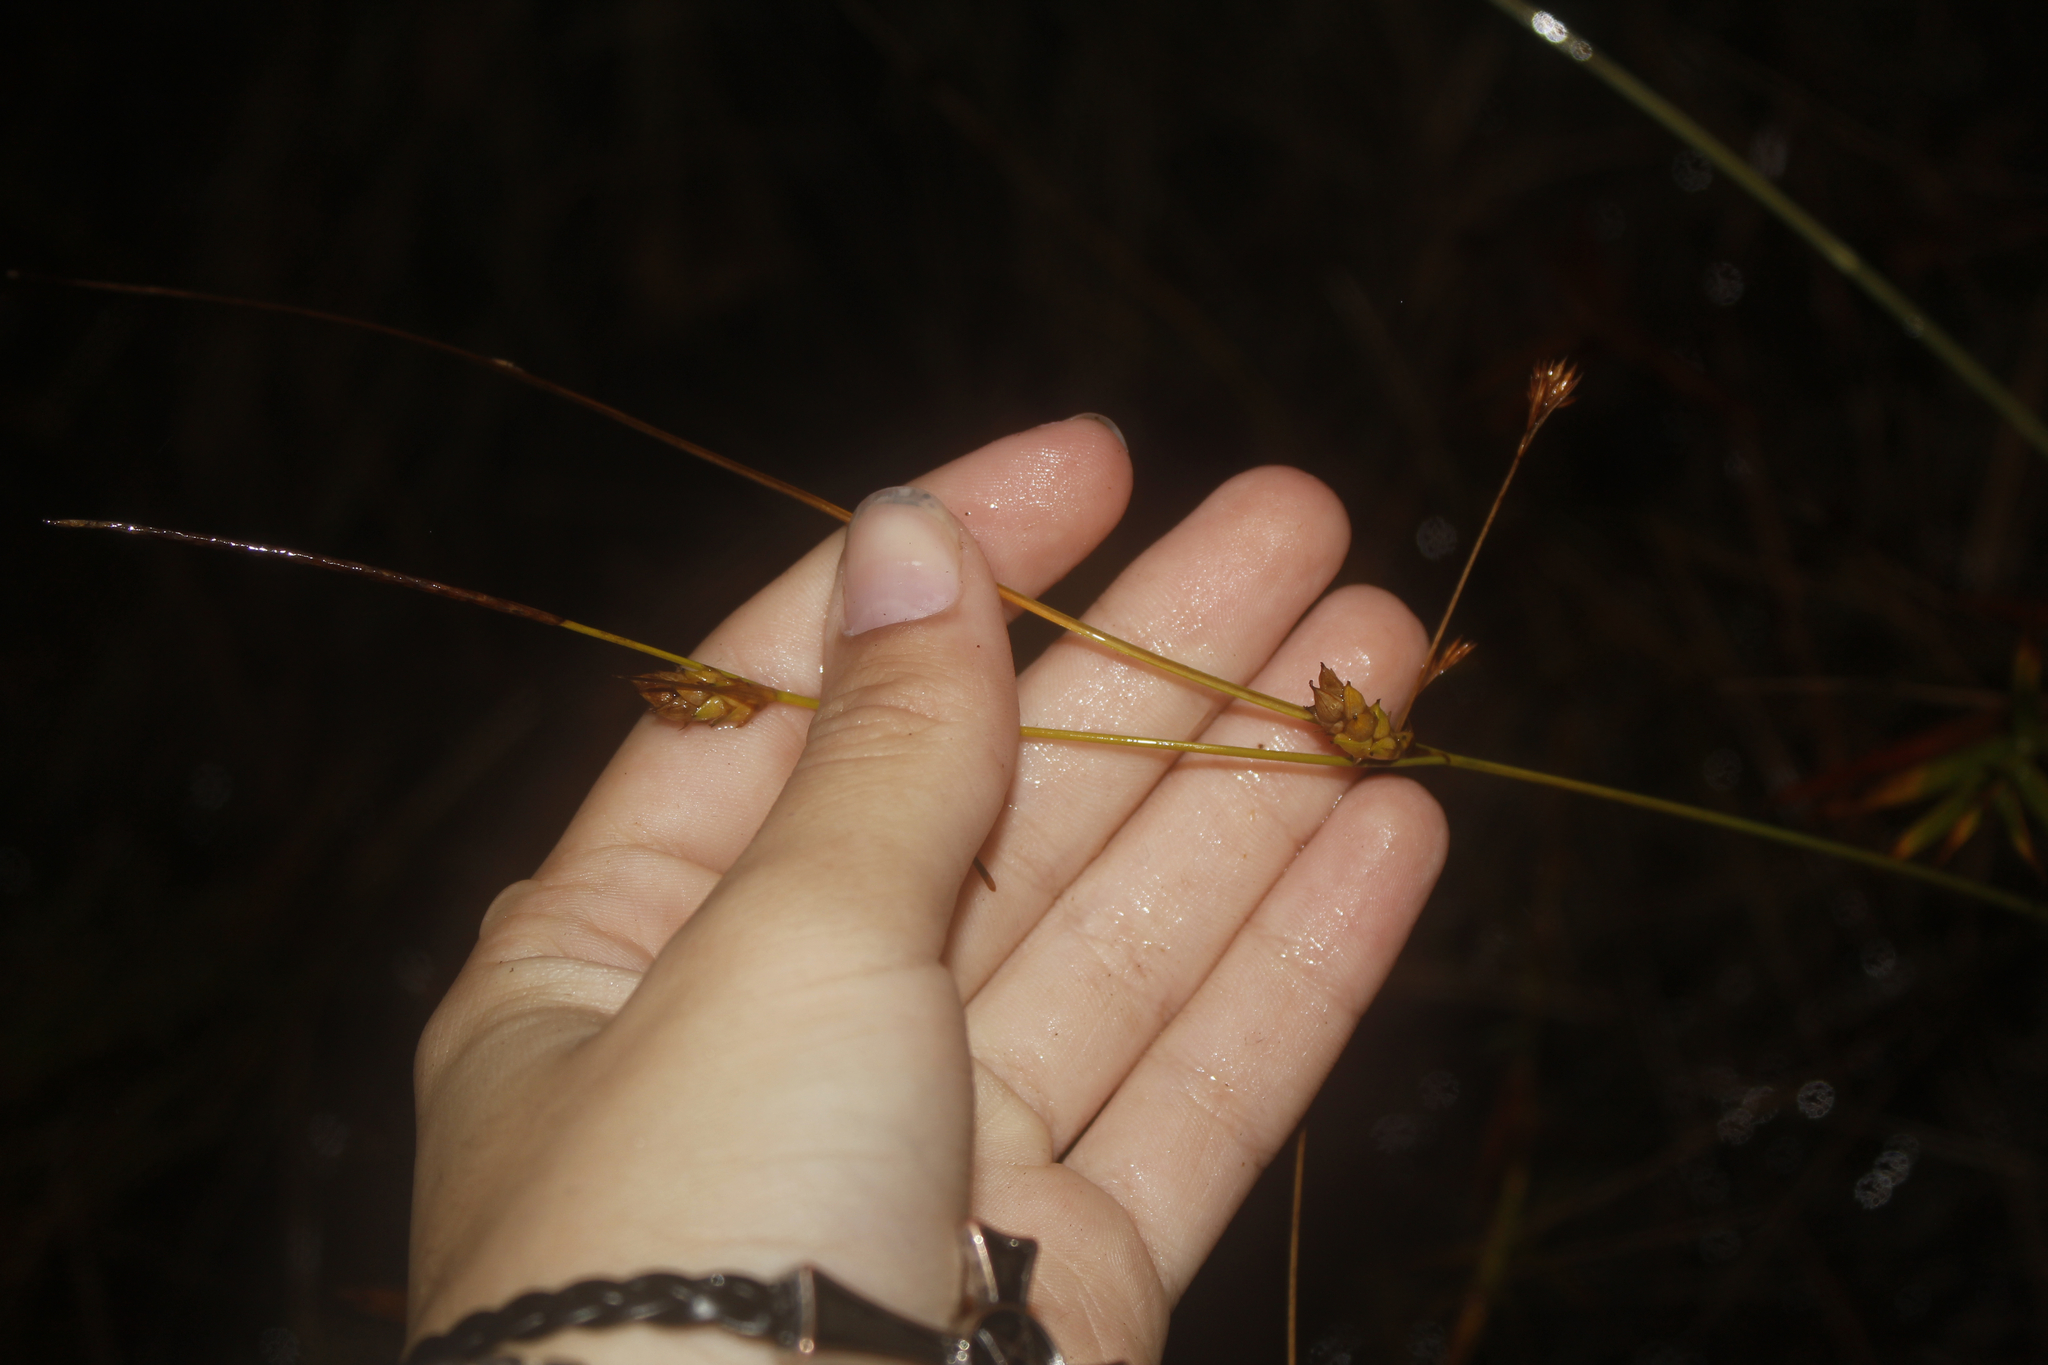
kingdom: Plantae
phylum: Tracheophyta
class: Liliopsida
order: Poales
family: Cyperaceae
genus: Carex
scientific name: Carex oligosperma
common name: Few-seed sedge
